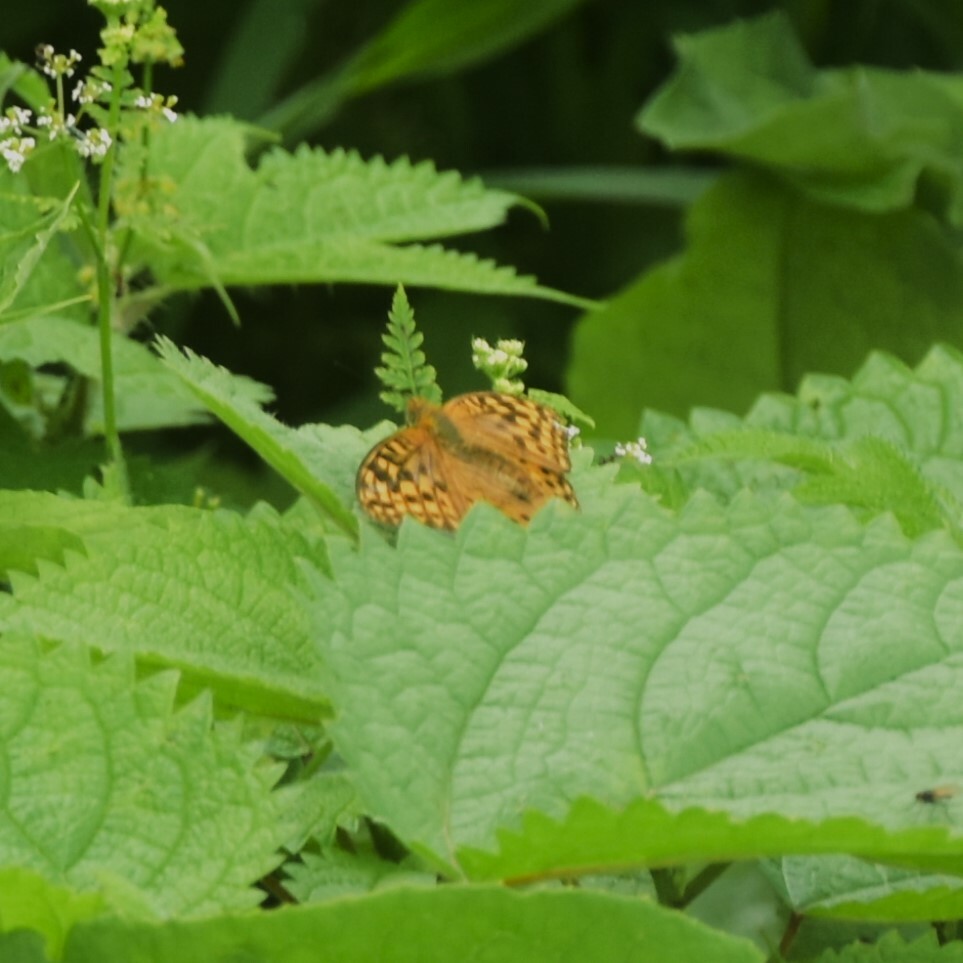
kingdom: Animalia
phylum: Arthropoda
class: Insecta
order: Lepidoptera
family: Nymphalidae
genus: Fabriciana
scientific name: Fabriciana kamala
